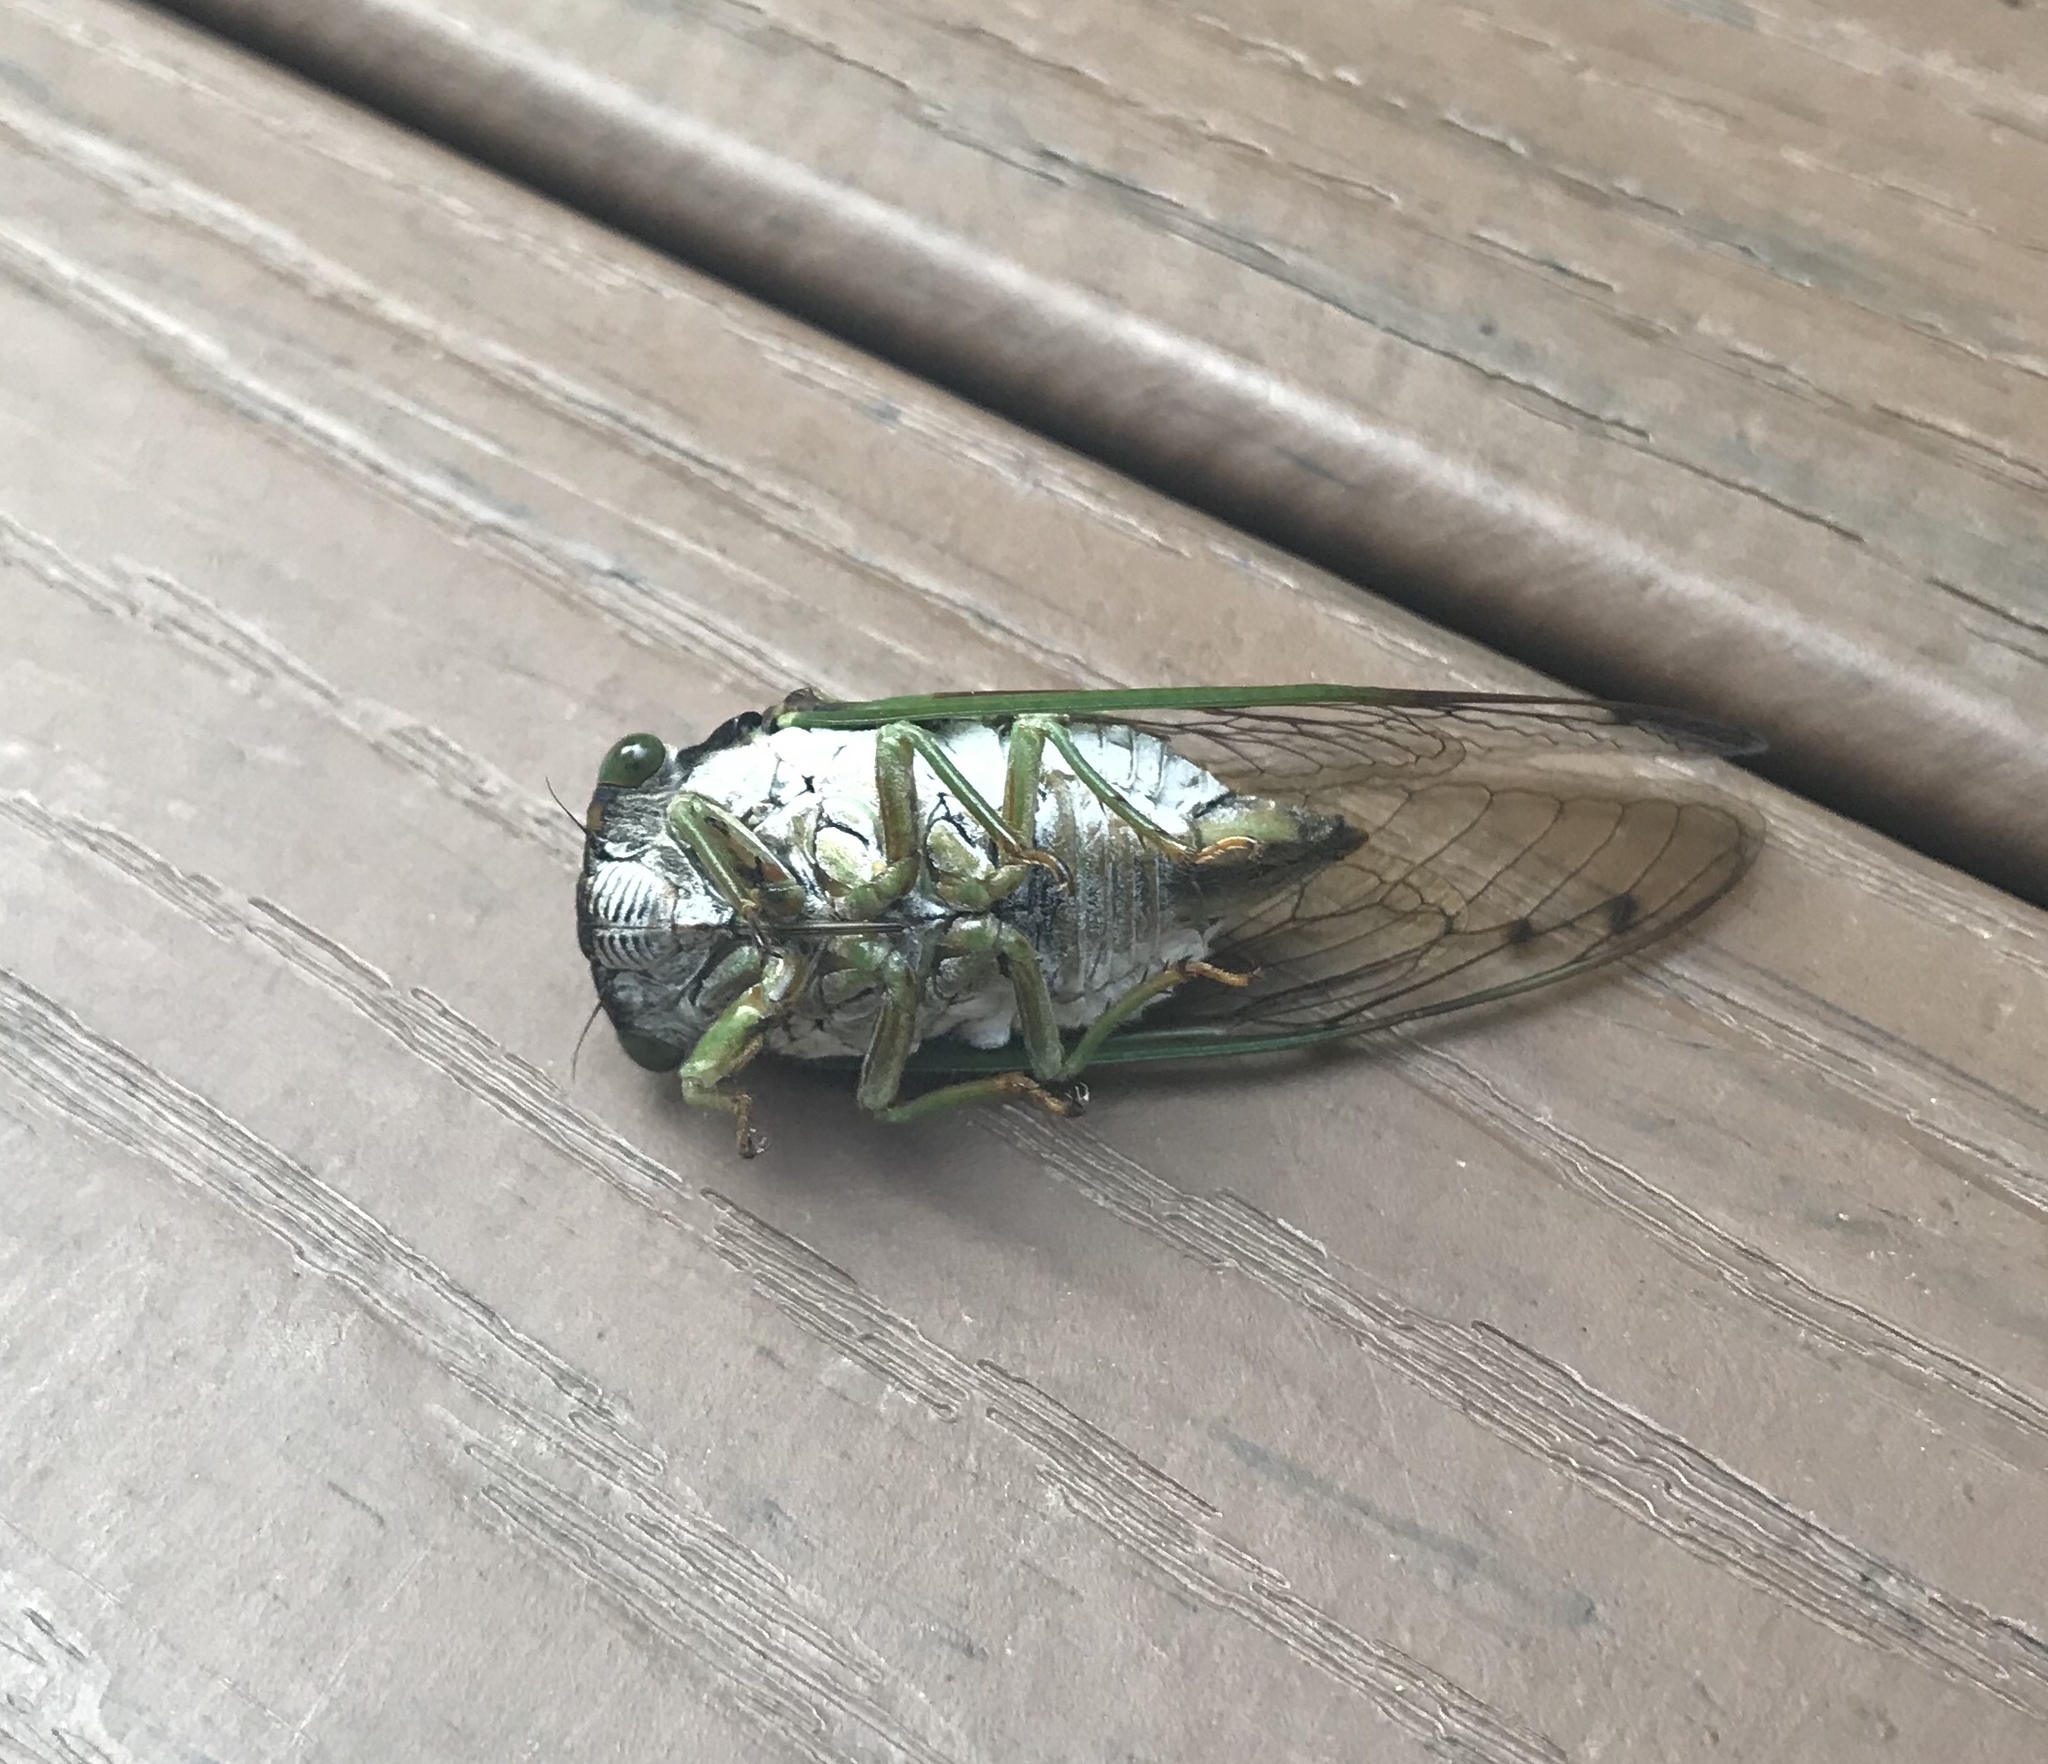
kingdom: Animalia
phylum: Arthropoda
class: Insecta
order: Hemiptera
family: Cicadidae
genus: Neotibicen
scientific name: Neotibicen tibicen
